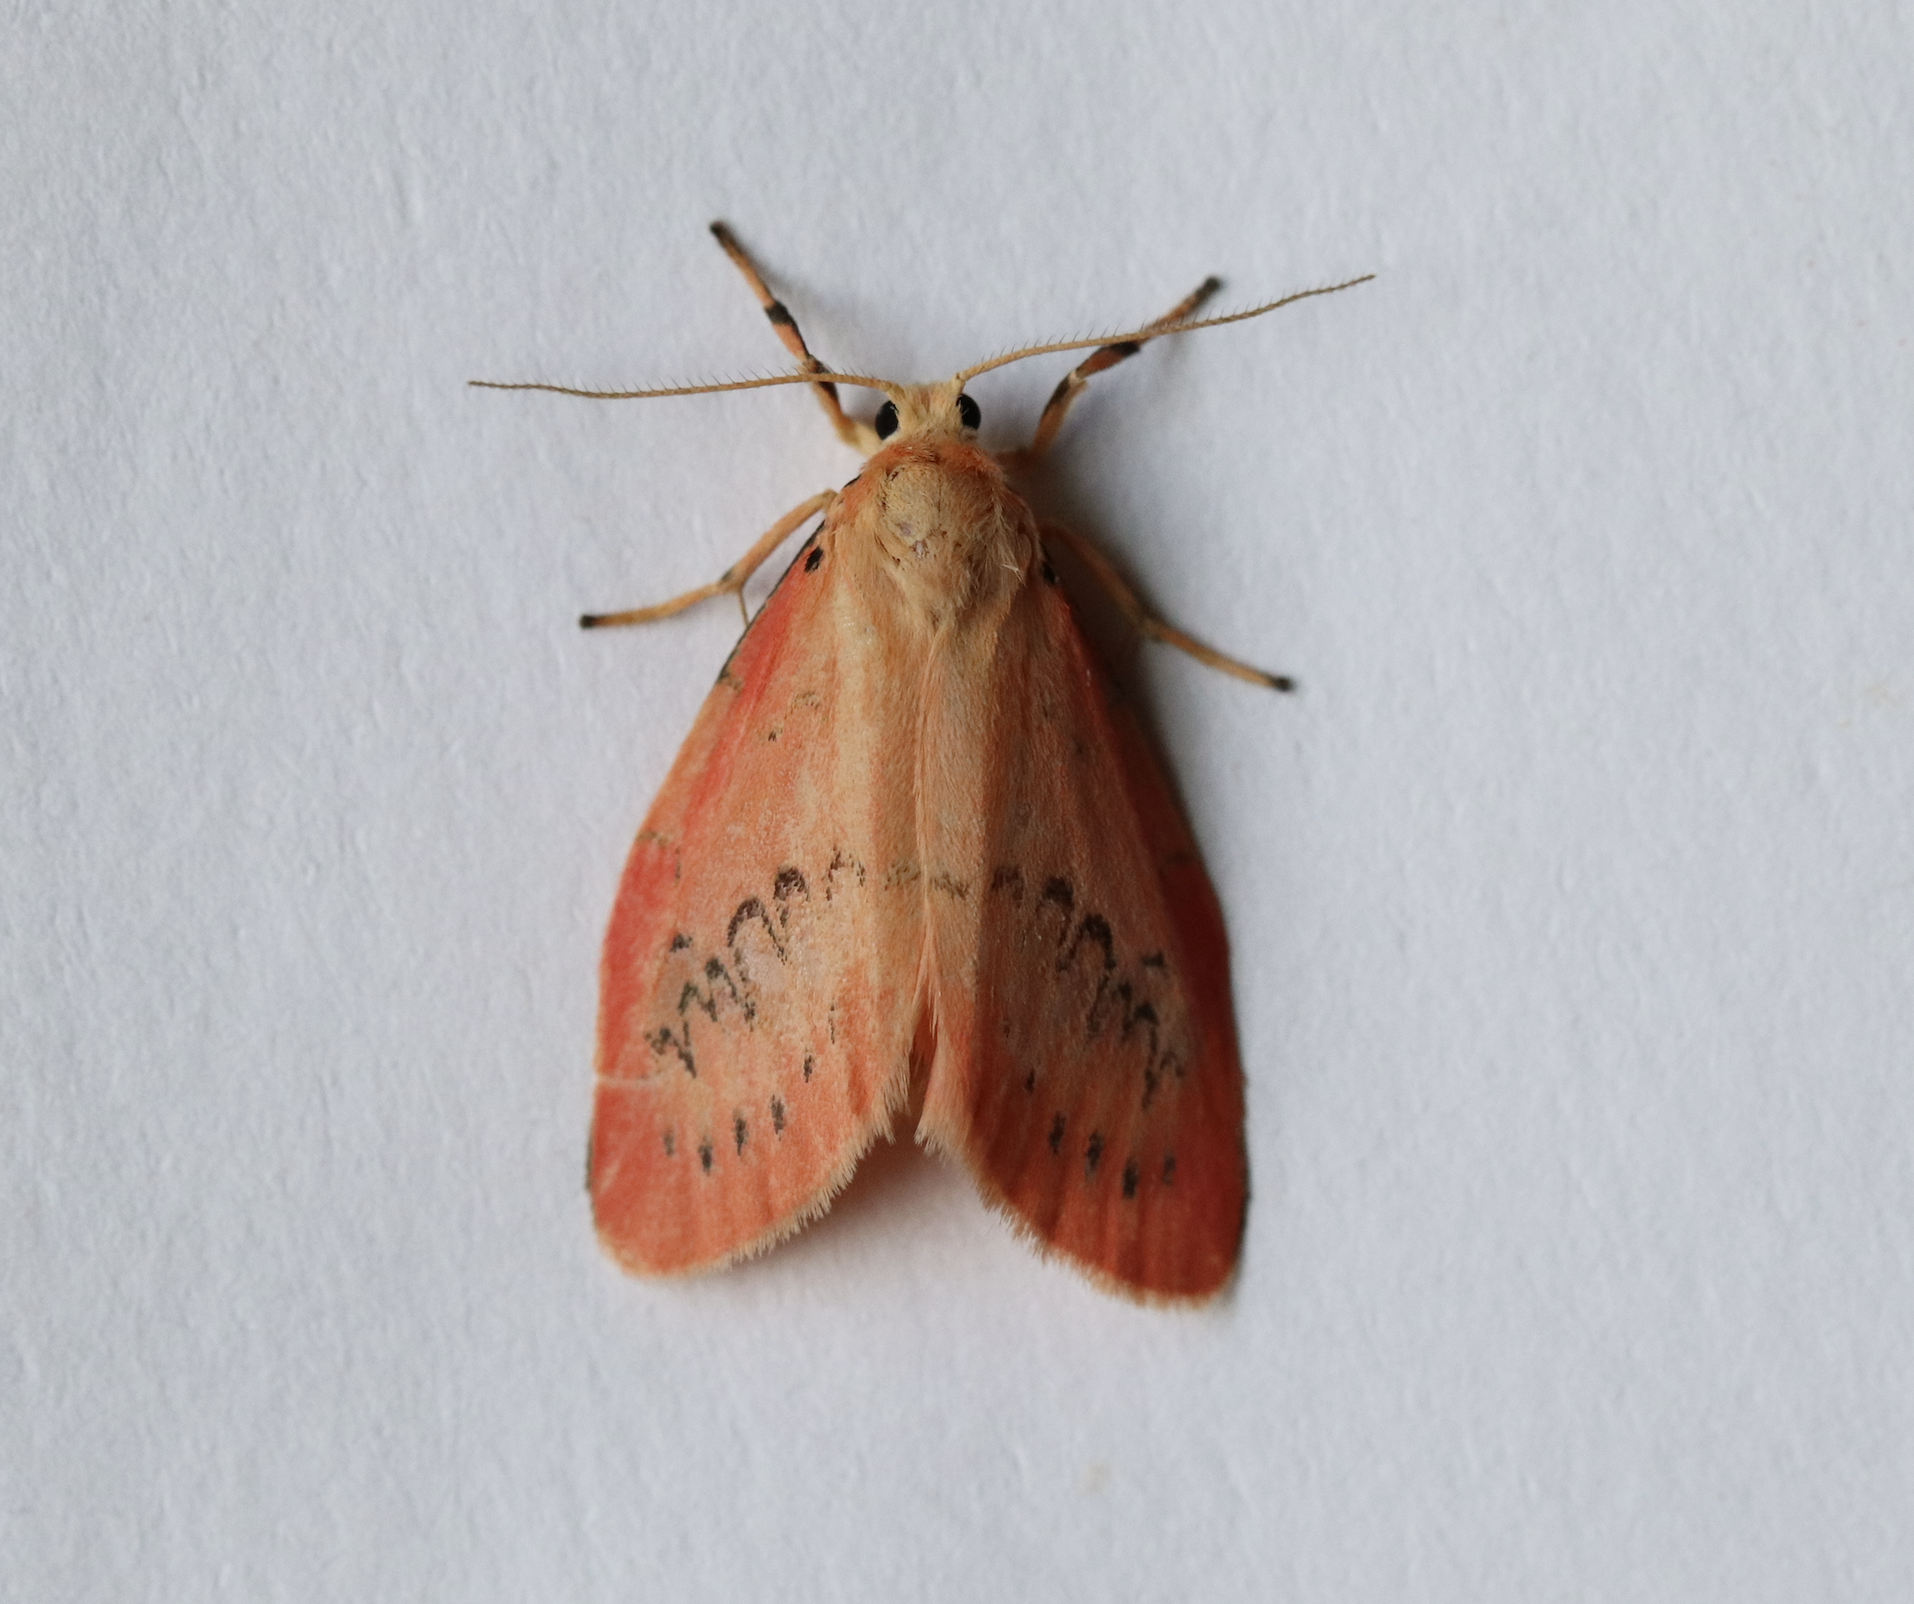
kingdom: Animalia
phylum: Arthropoda
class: Insecta
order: Lepidoptera
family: Erebidae
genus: Miltochrista
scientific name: Miltochrista miniata
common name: Rosy footman
